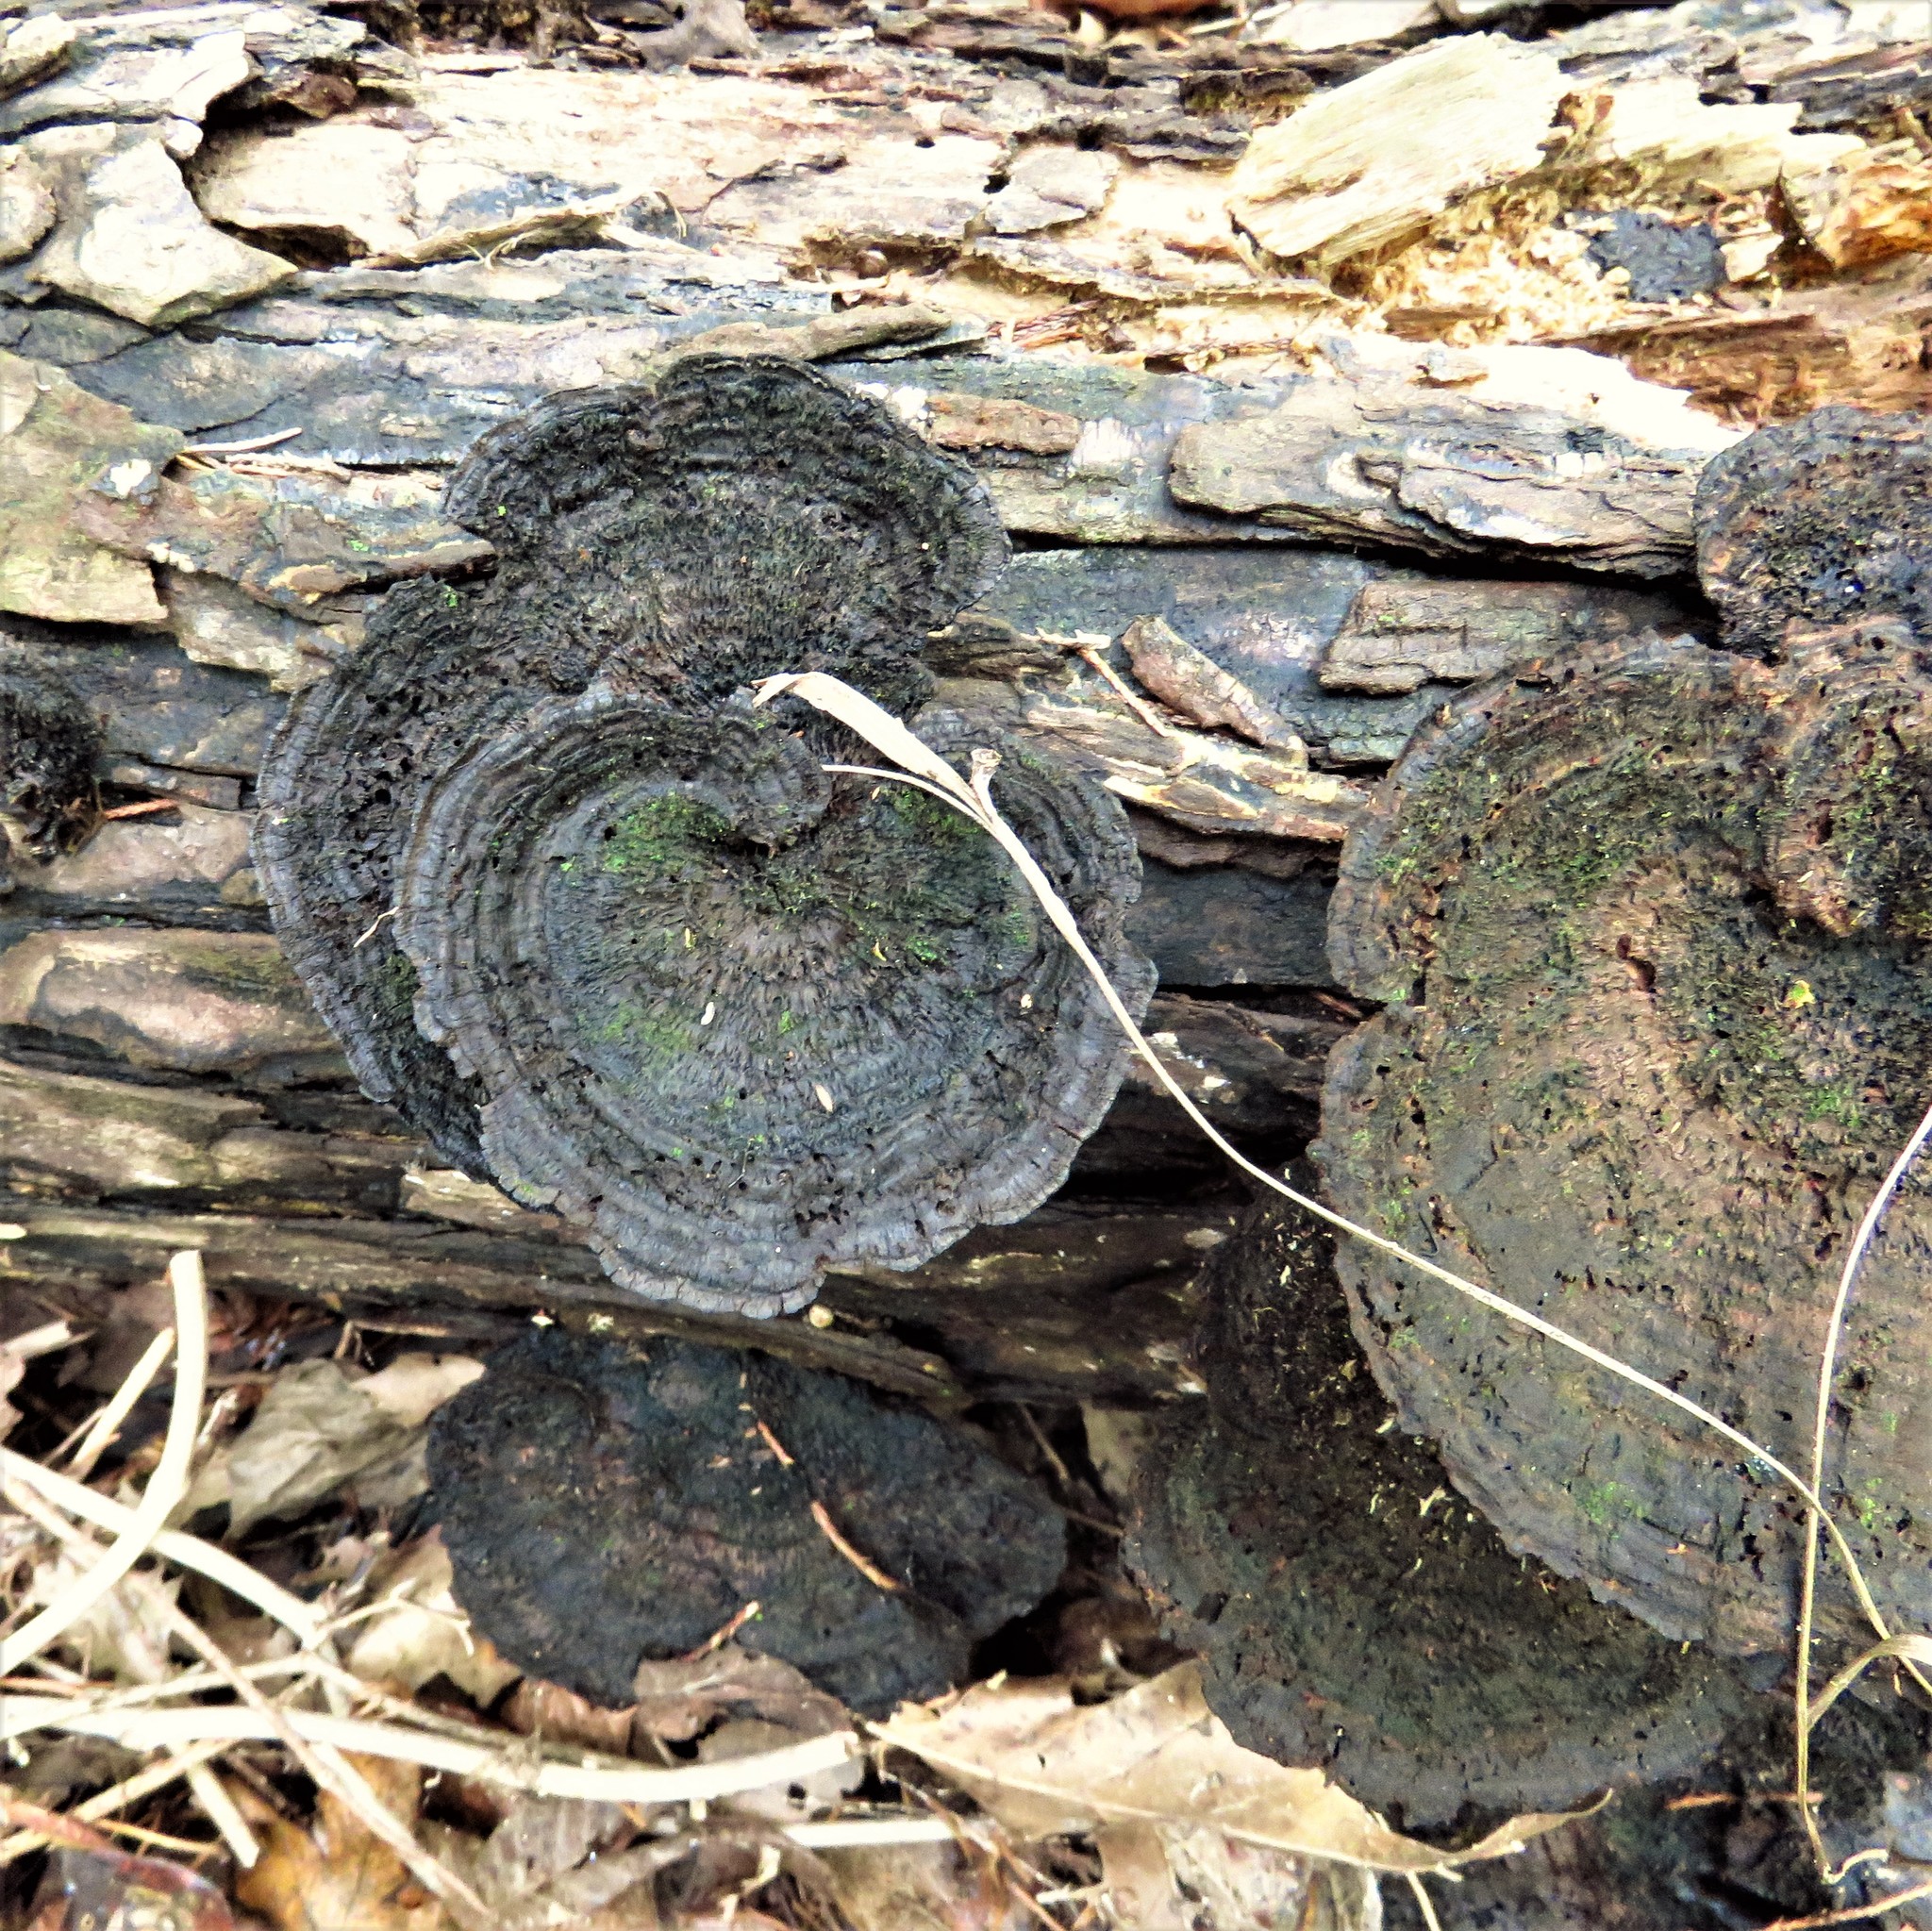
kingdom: Fungi
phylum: Basidiomycota
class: Agaricomycetes
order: Polyporales
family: Cerrenaceae
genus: Cerrena
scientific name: Cerrena hydnoides
